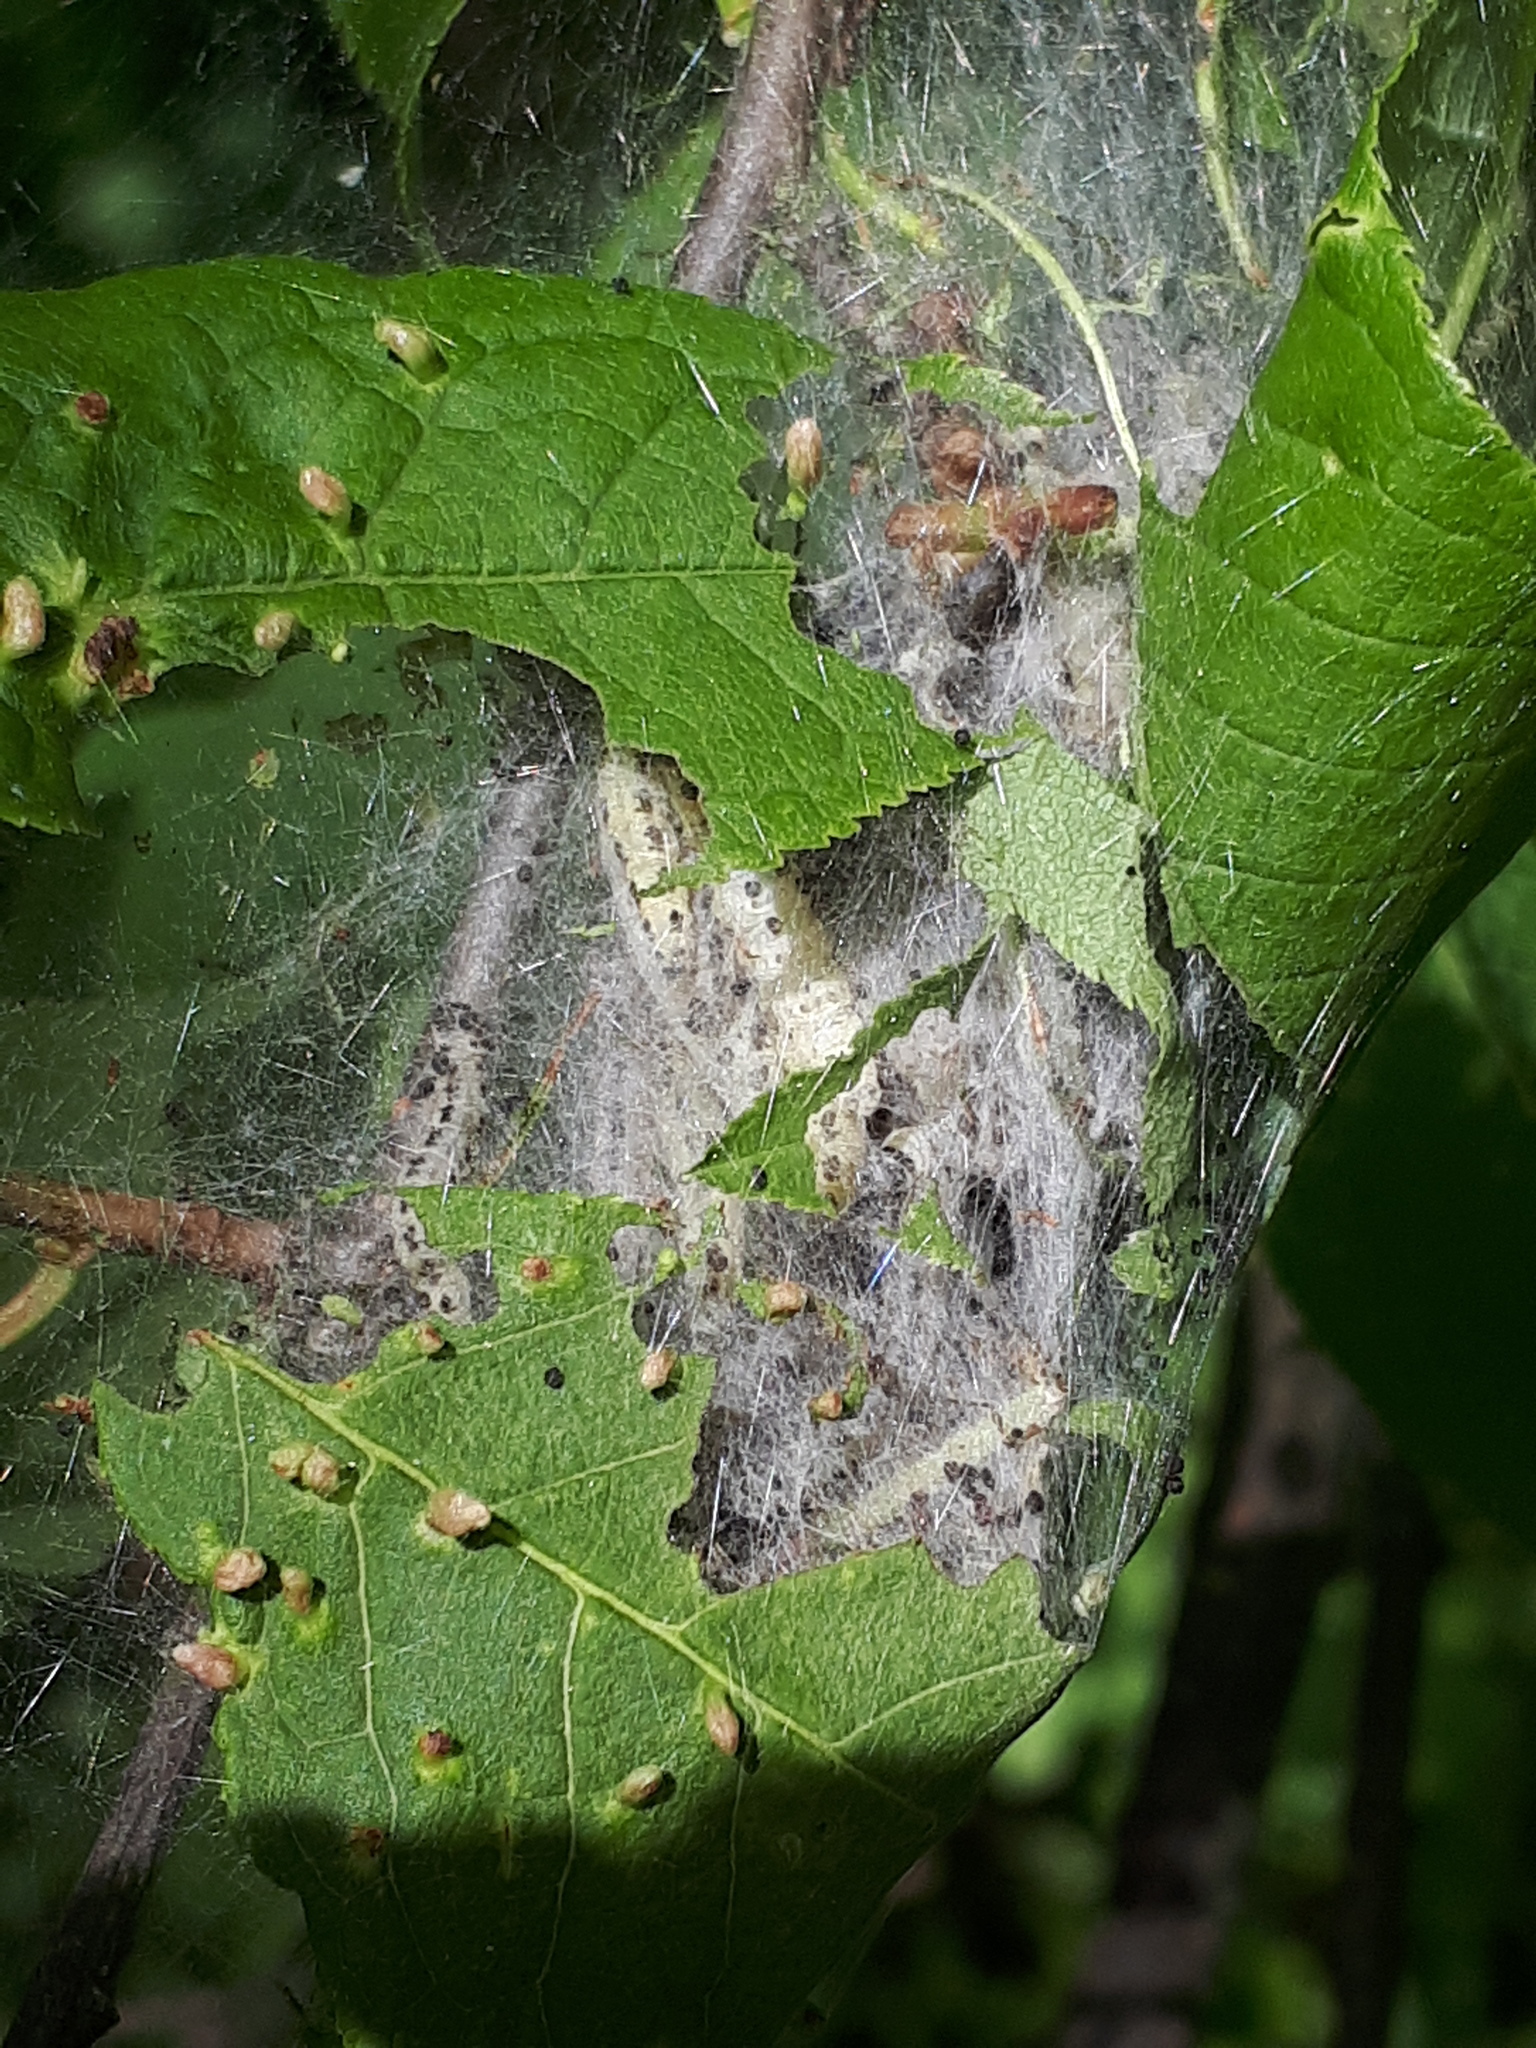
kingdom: Animalia
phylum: Arthropoda
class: Insecta
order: Lepidoptera
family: Yponomeutidae
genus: Yponomeuta
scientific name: Yponomeuta evonymella
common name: Bird-cherry ermine
